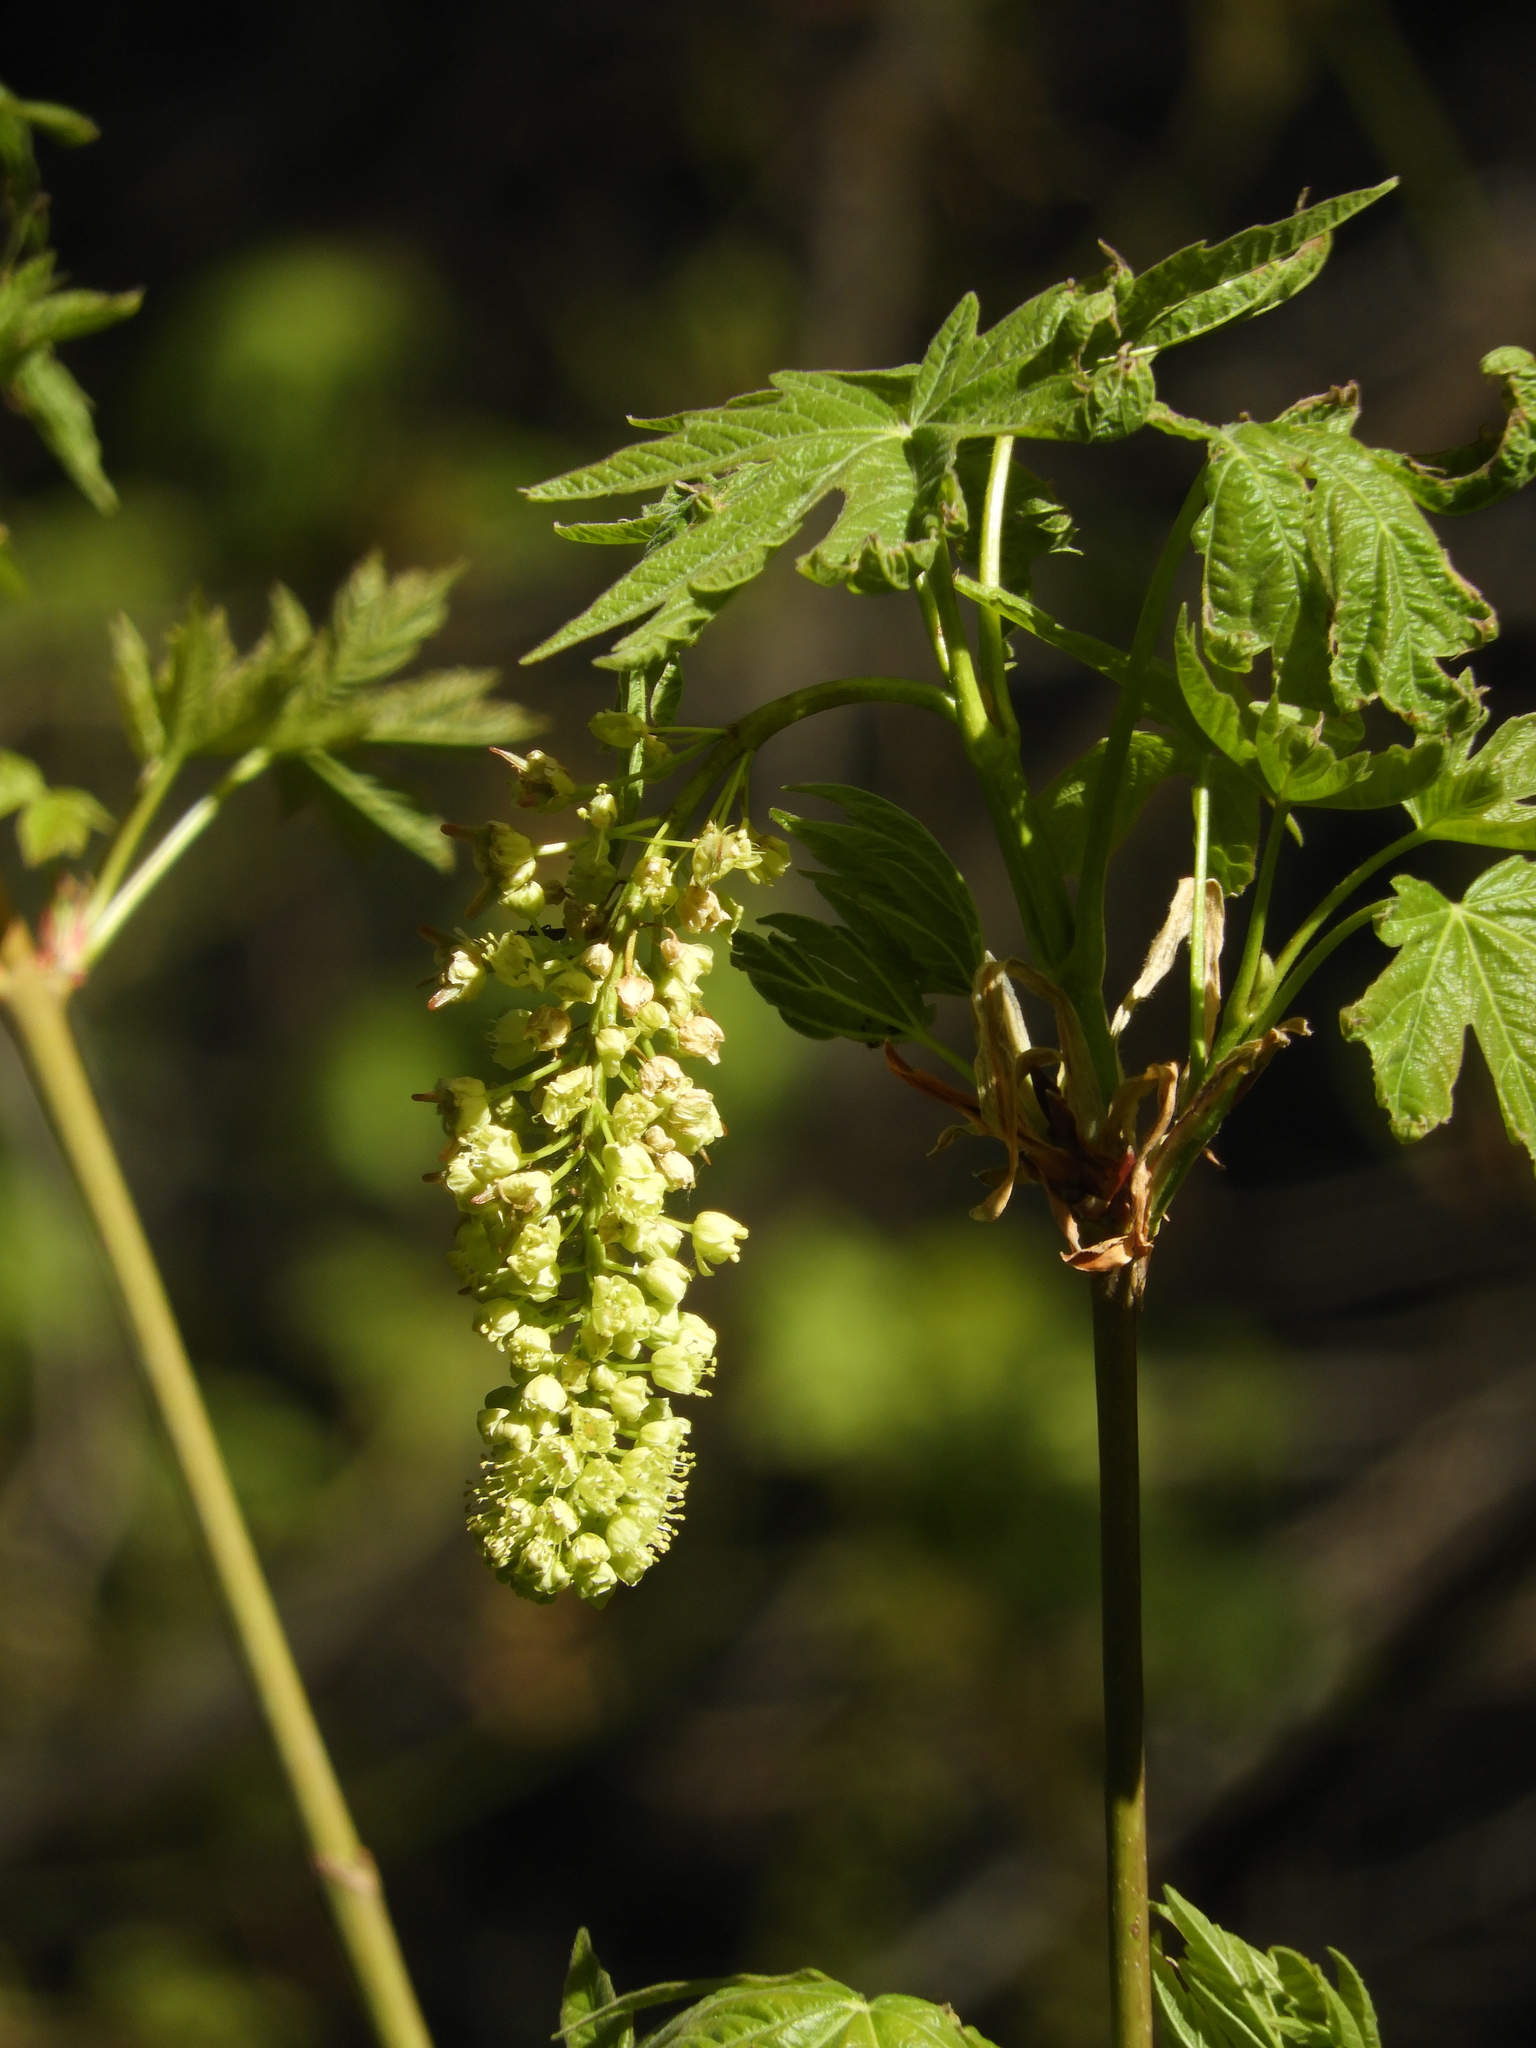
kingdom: Plantae
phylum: Tracheophyta
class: Magnoliopsida
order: Sapindales
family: Sapindaceae
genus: Acer
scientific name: Acer macrophyllum
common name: Oregon maple
